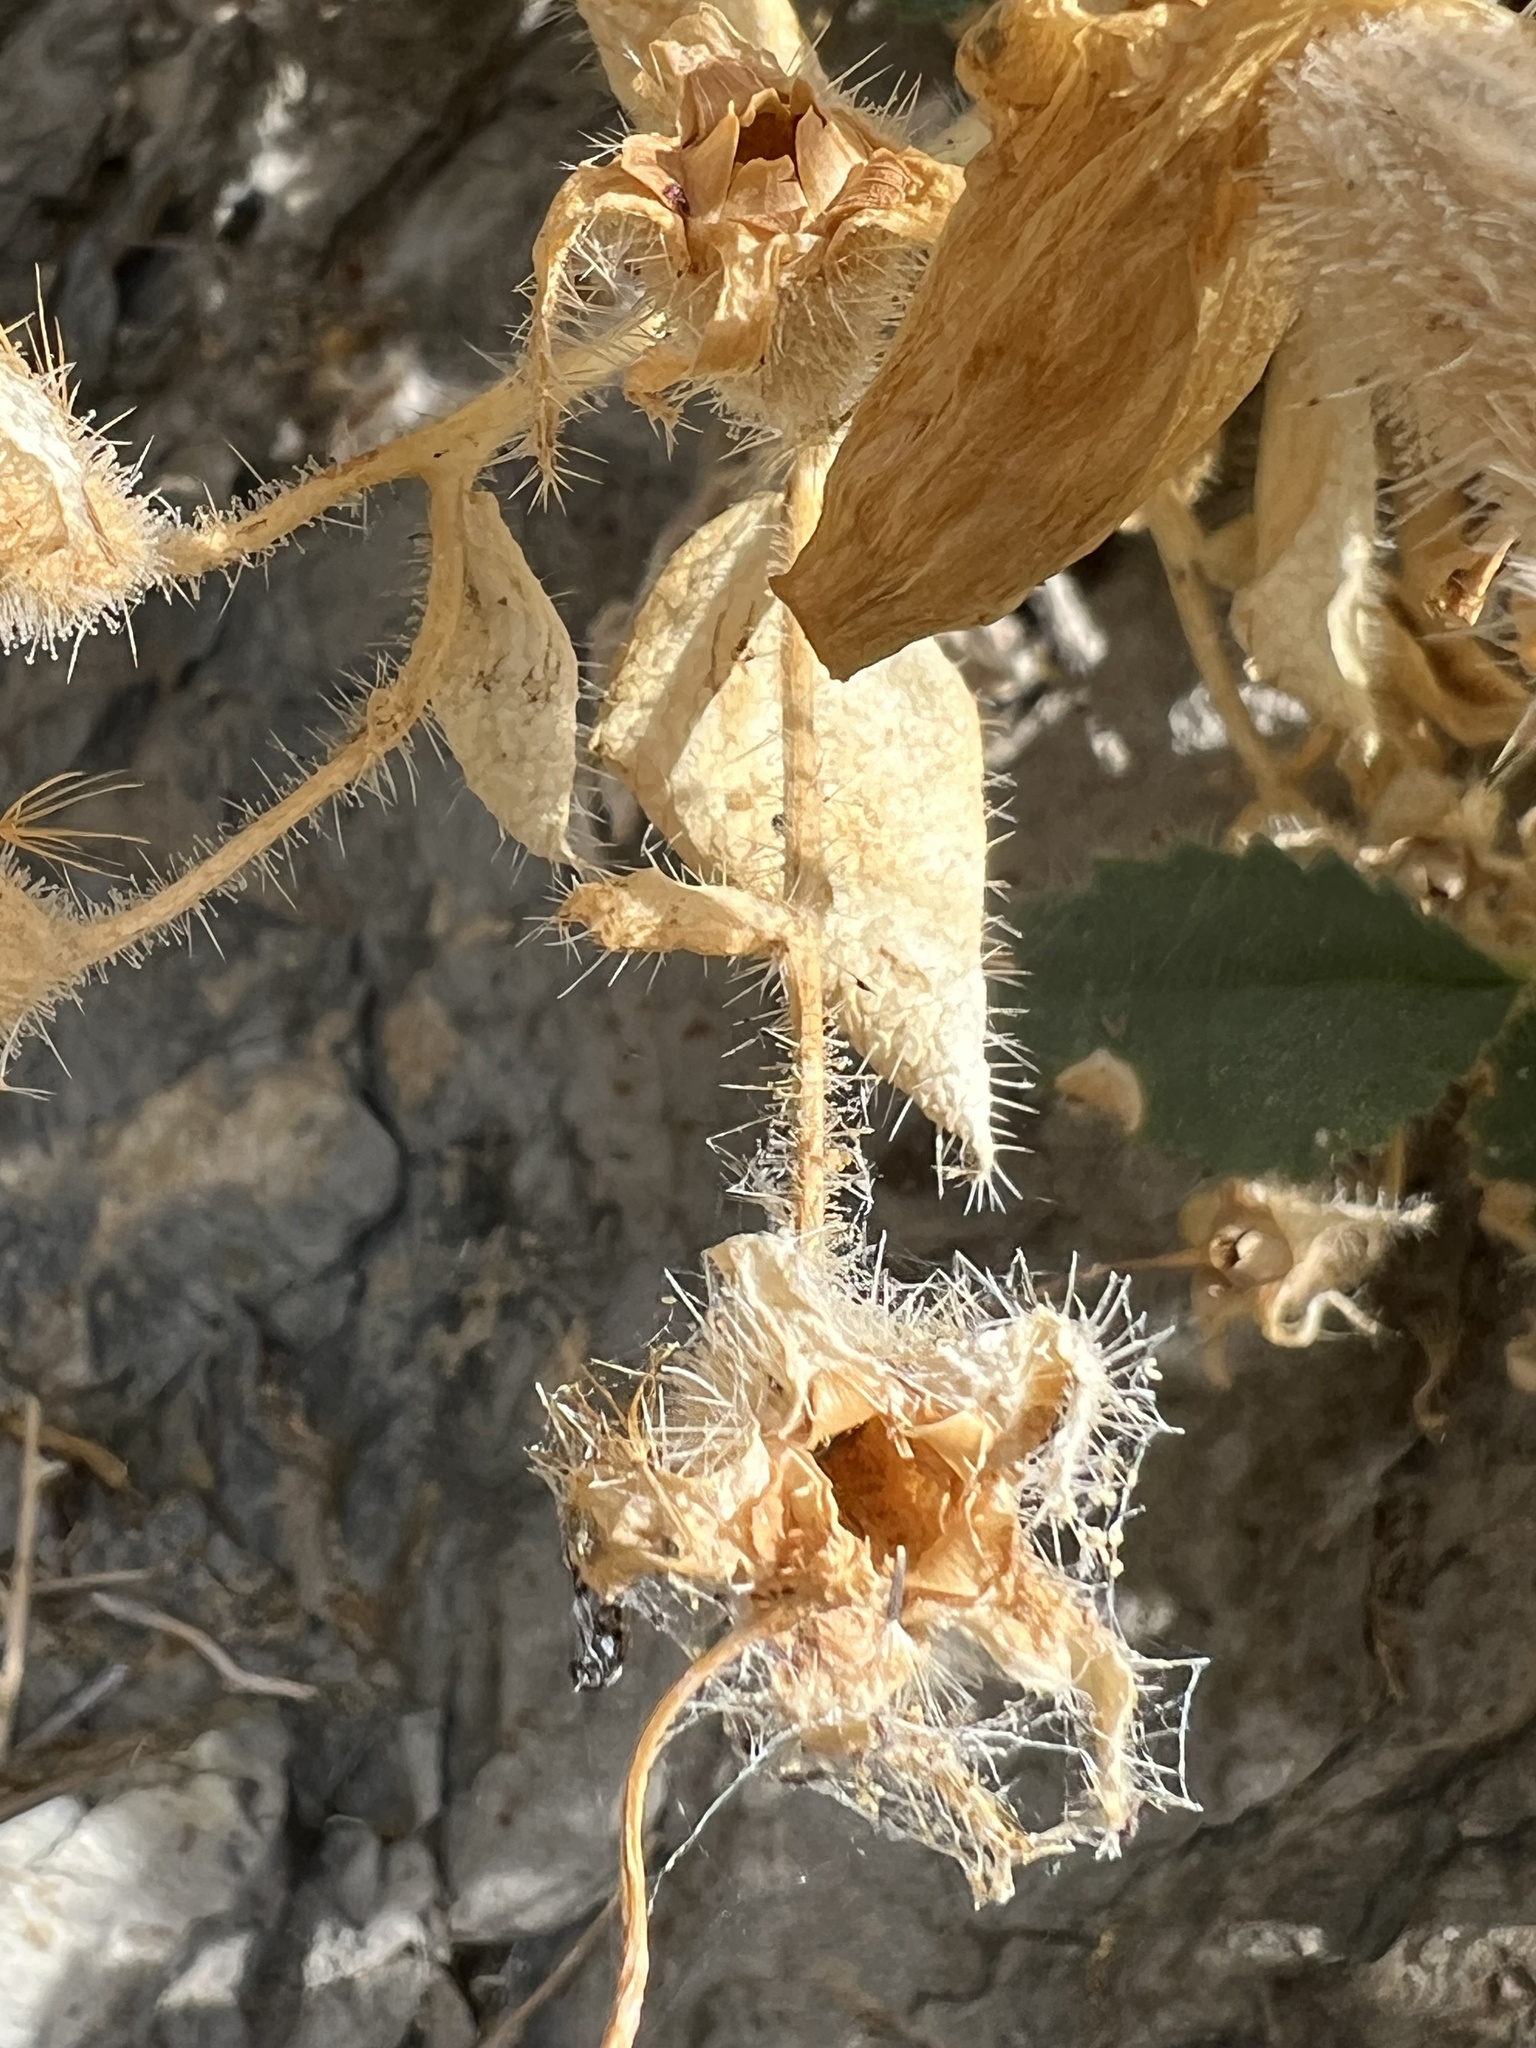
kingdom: Plantae
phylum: Tracheophyta
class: Magnoliopsida
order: Cornales
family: Loasaceae
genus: Eucnide
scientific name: Eucnide urens
